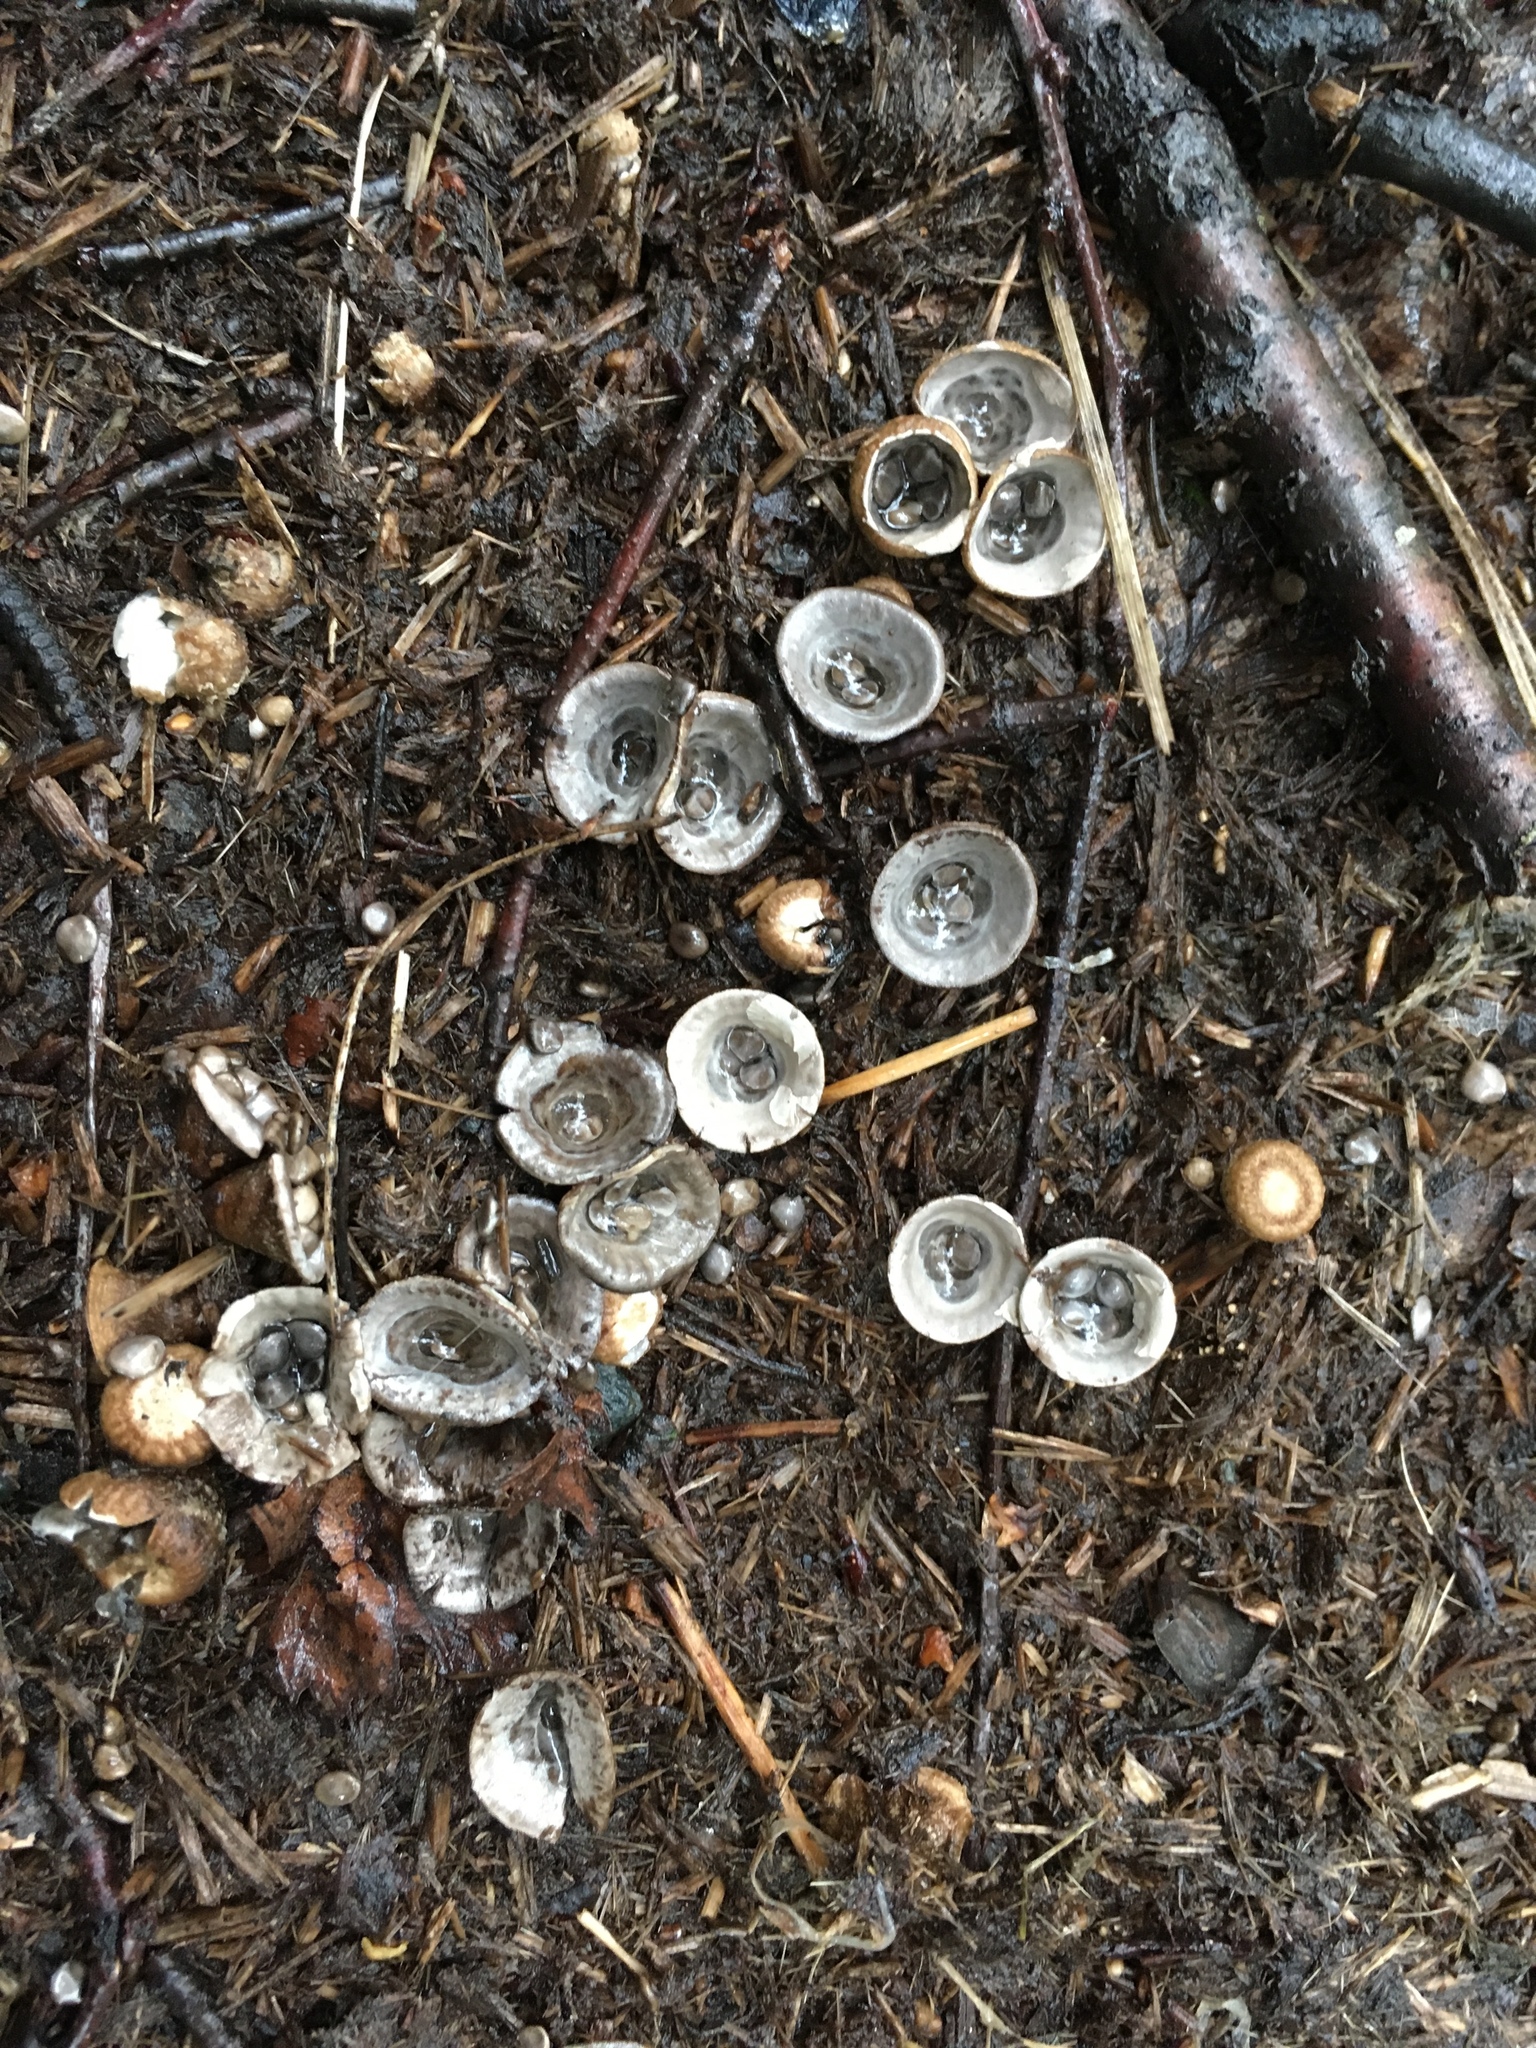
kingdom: Fungi
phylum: Basidiomycota
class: Agaricomycetes
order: Agaricales
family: Agaricaceae
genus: Cyathus
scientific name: Cyathus stercoreus
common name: Dung bird's nest
